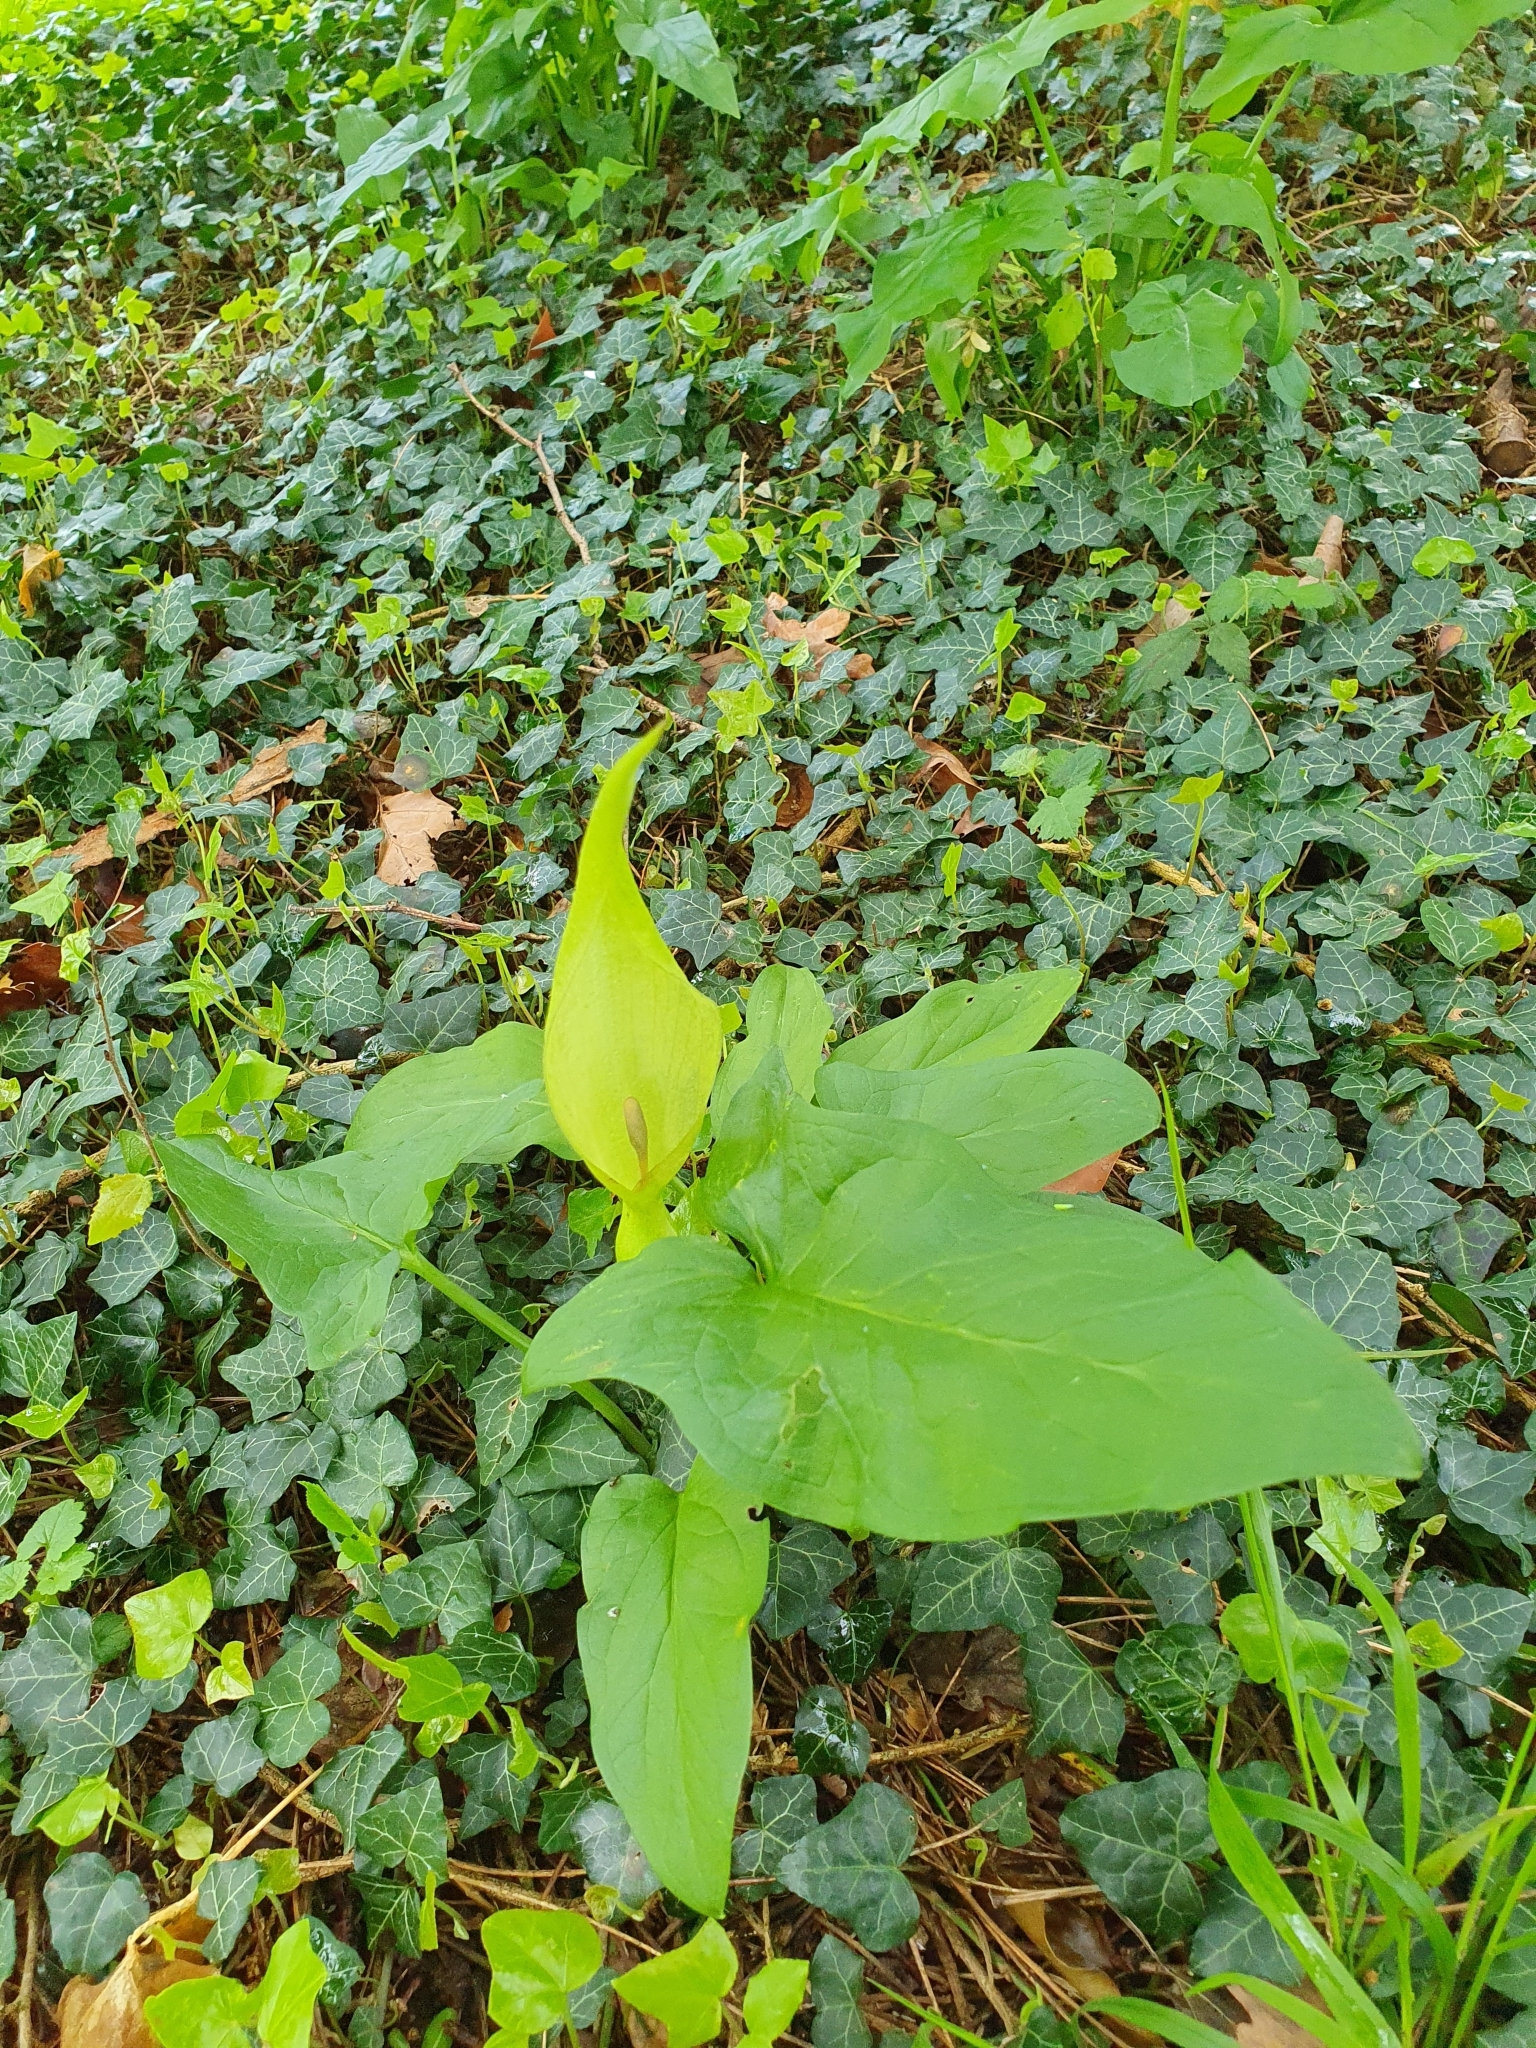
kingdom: Plantae
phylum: Tracheophyta
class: Liliopsida
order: Alismatales
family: Araceae
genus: Arum
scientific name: Arum maculatum
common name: Lords-and-ladies
